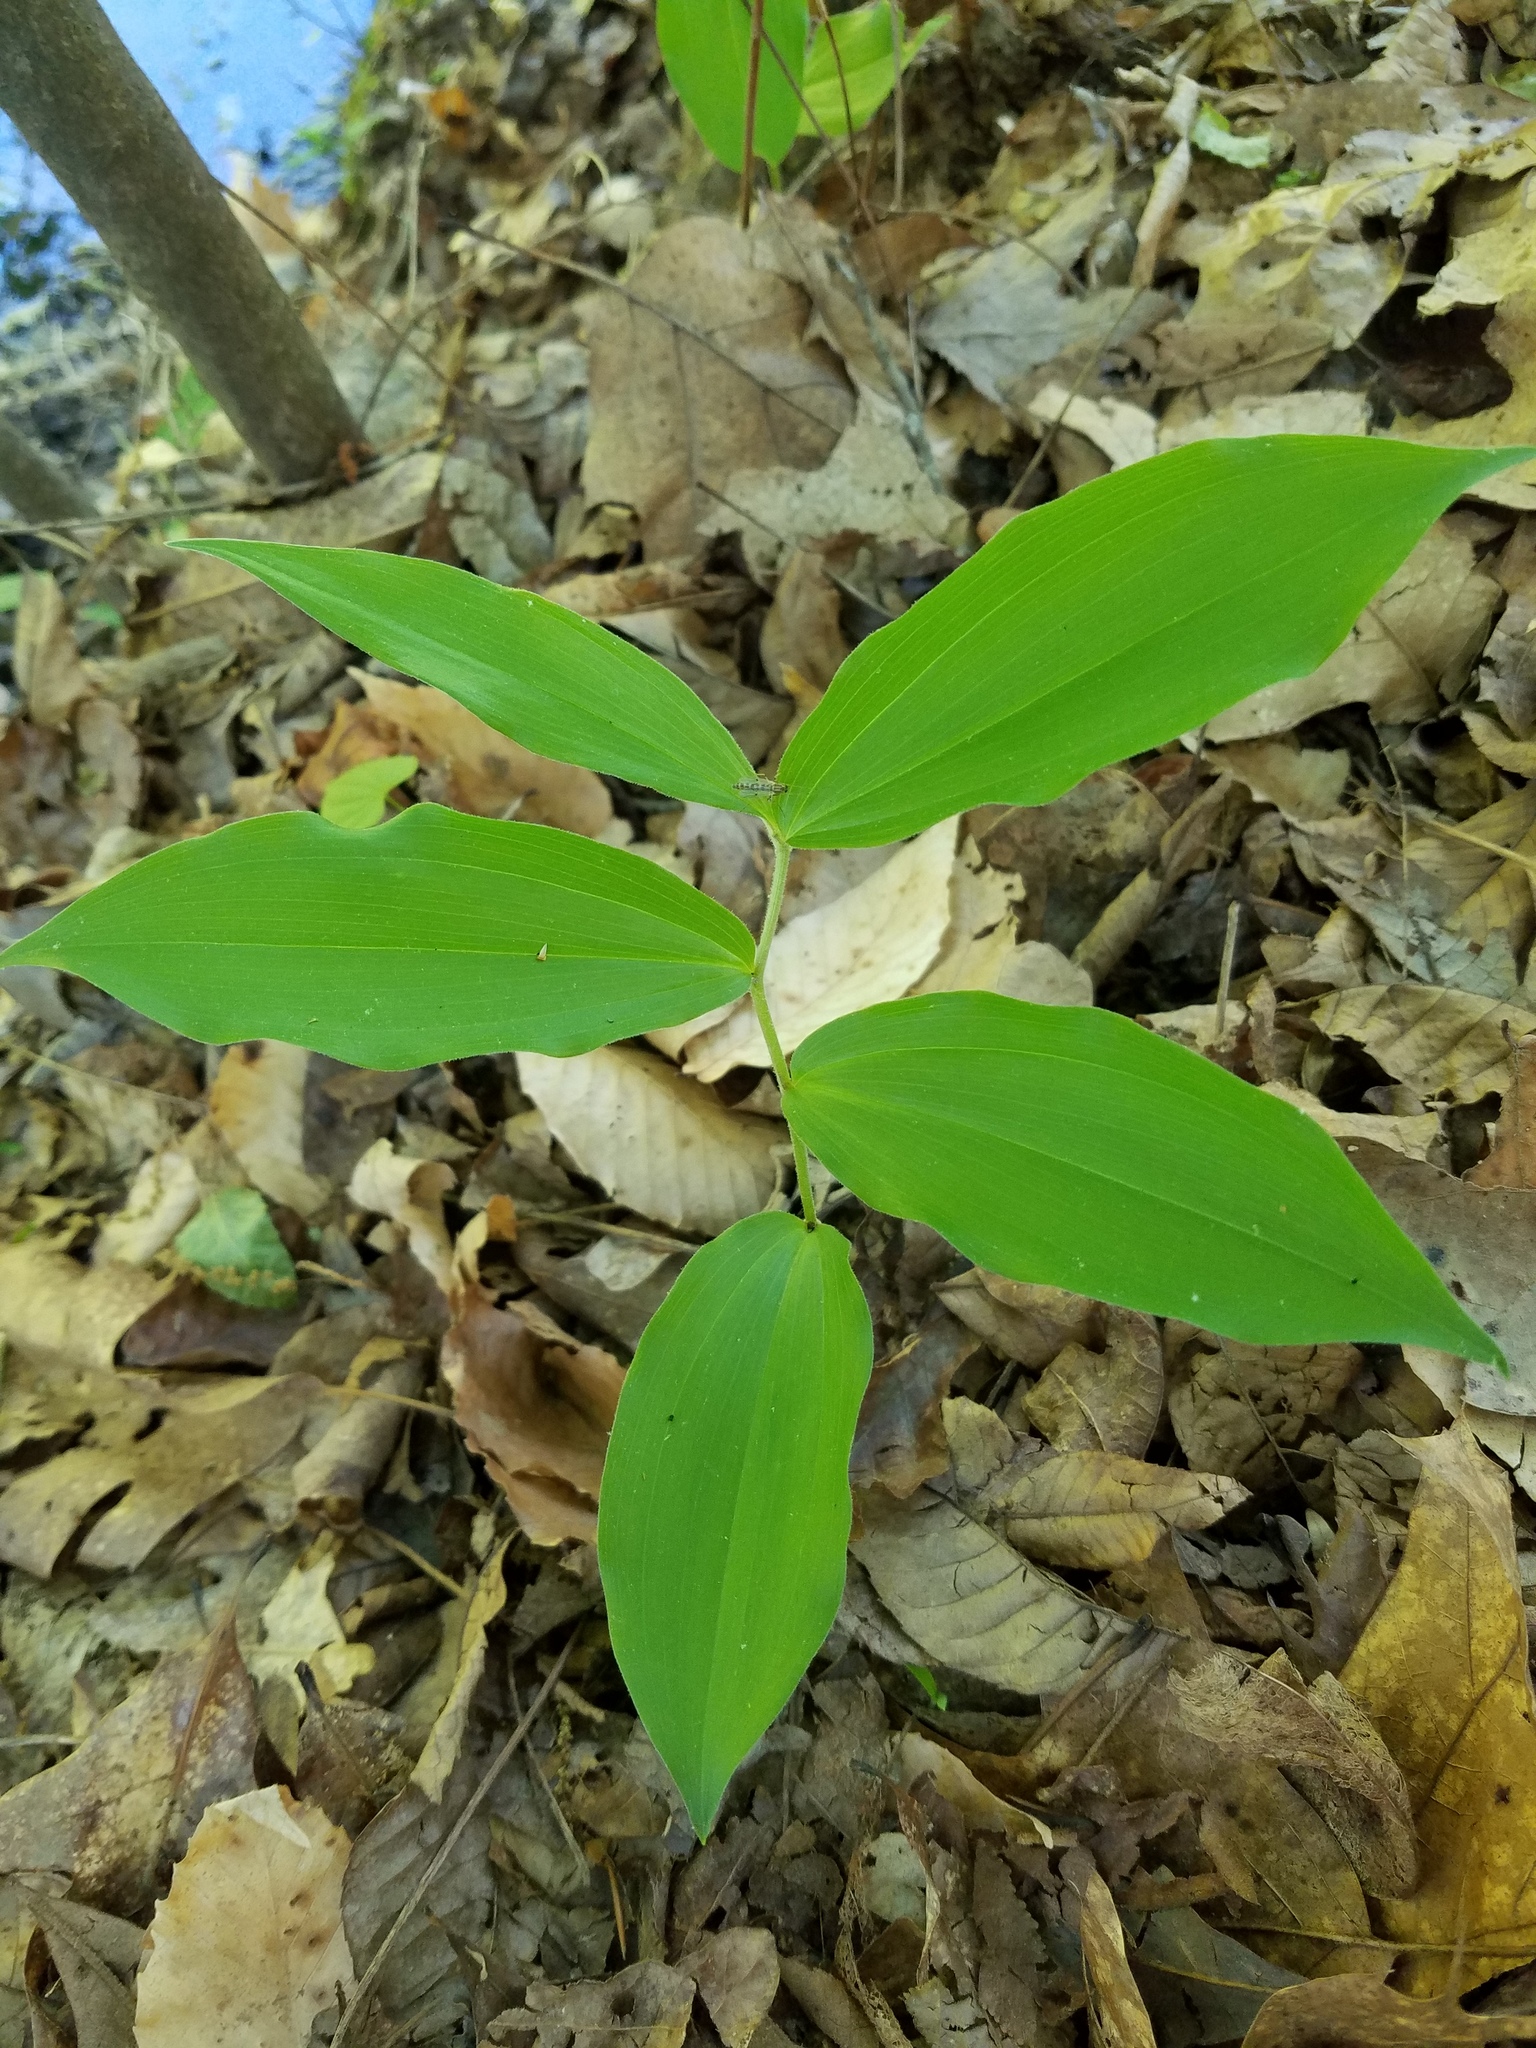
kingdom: Plantae
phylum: Tracheophyta
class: Liliopsida
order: Asparagales
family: Asparagaceae
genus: Maianthemum
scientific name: Maianthemum racemosum
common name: False spikenard
